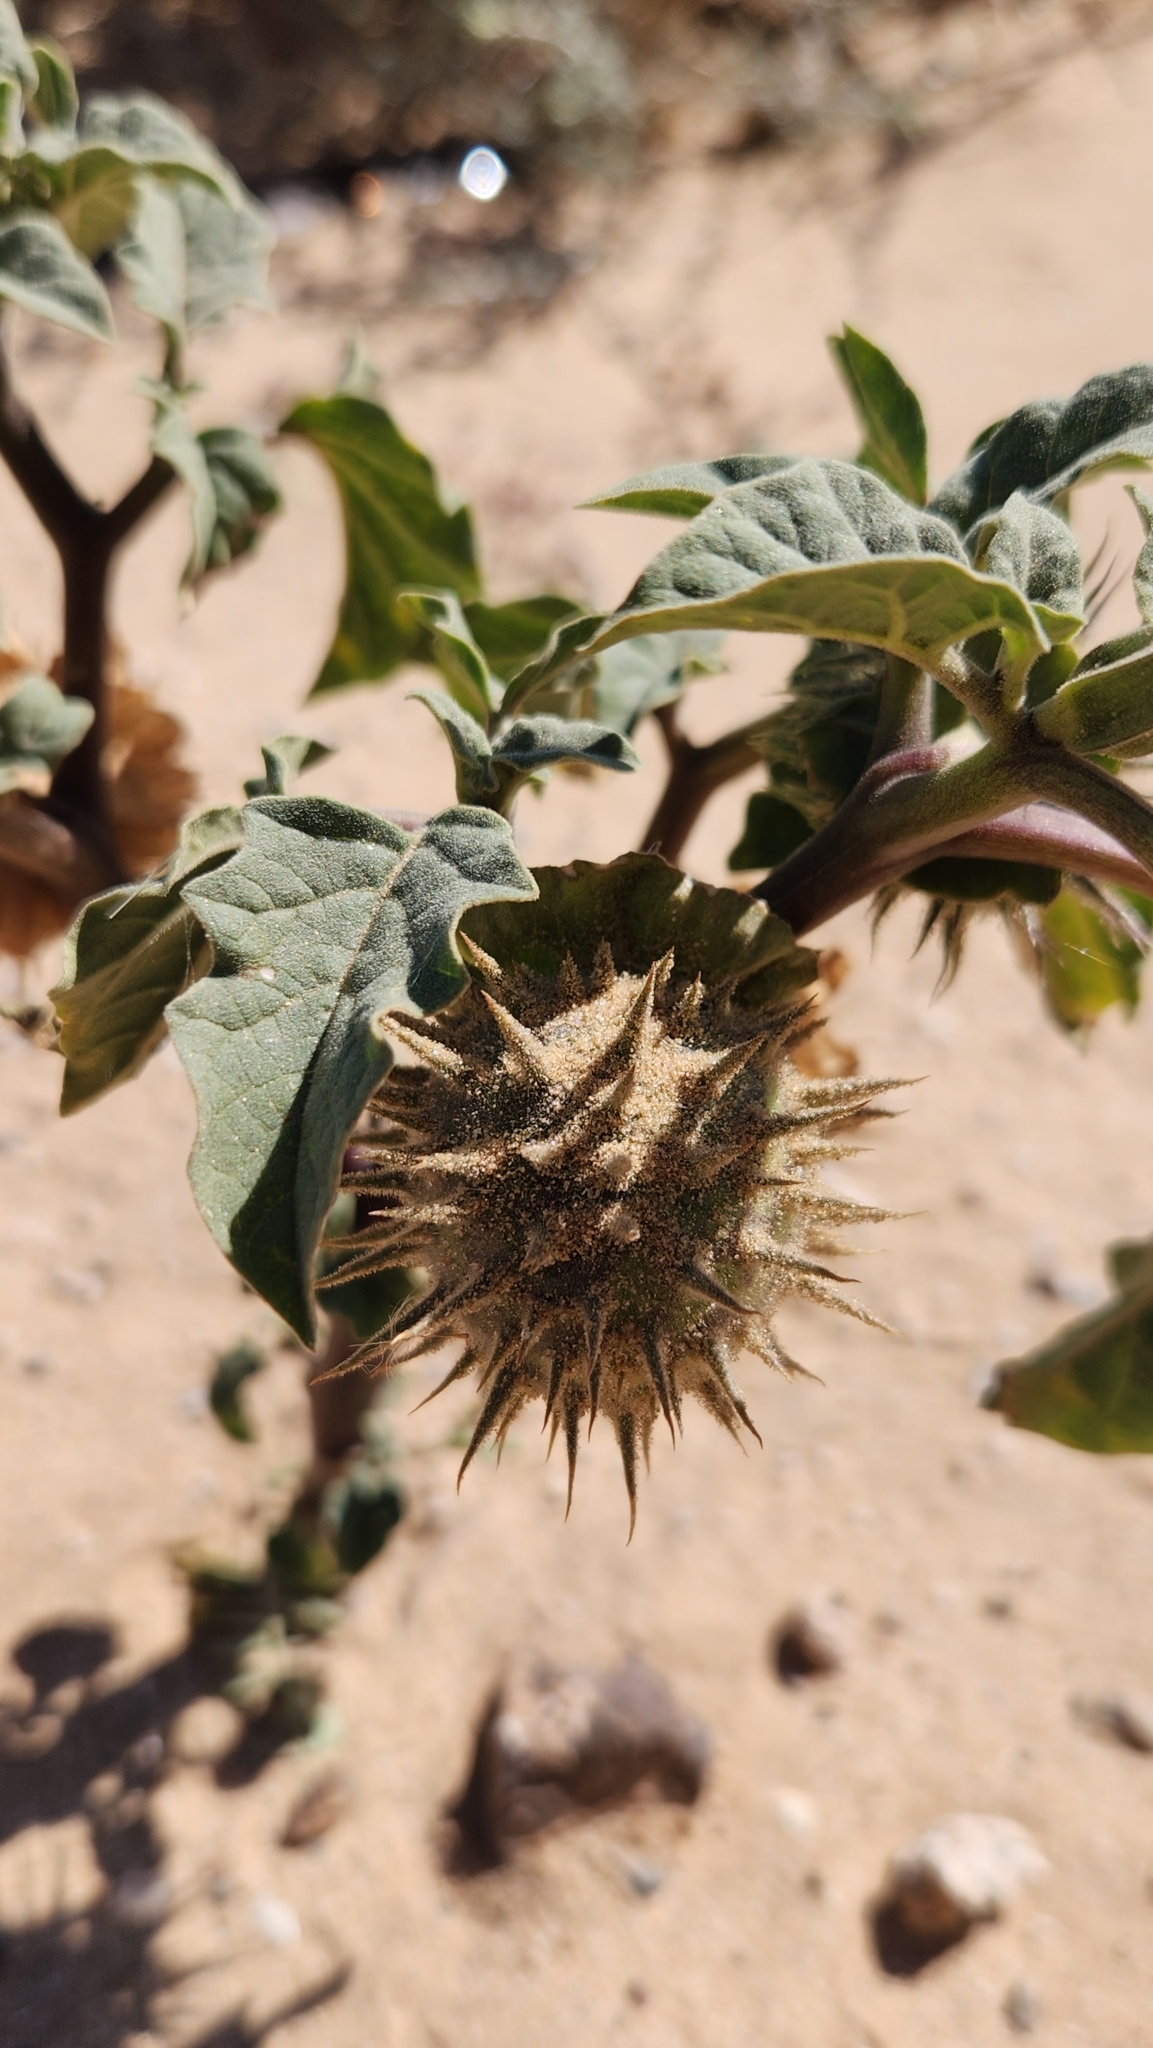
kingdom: Plantae
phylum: Tracheophyta
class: Magnoliopsida
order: Solanales
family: Solanaceae
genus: Datura
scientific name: Datura discolor
